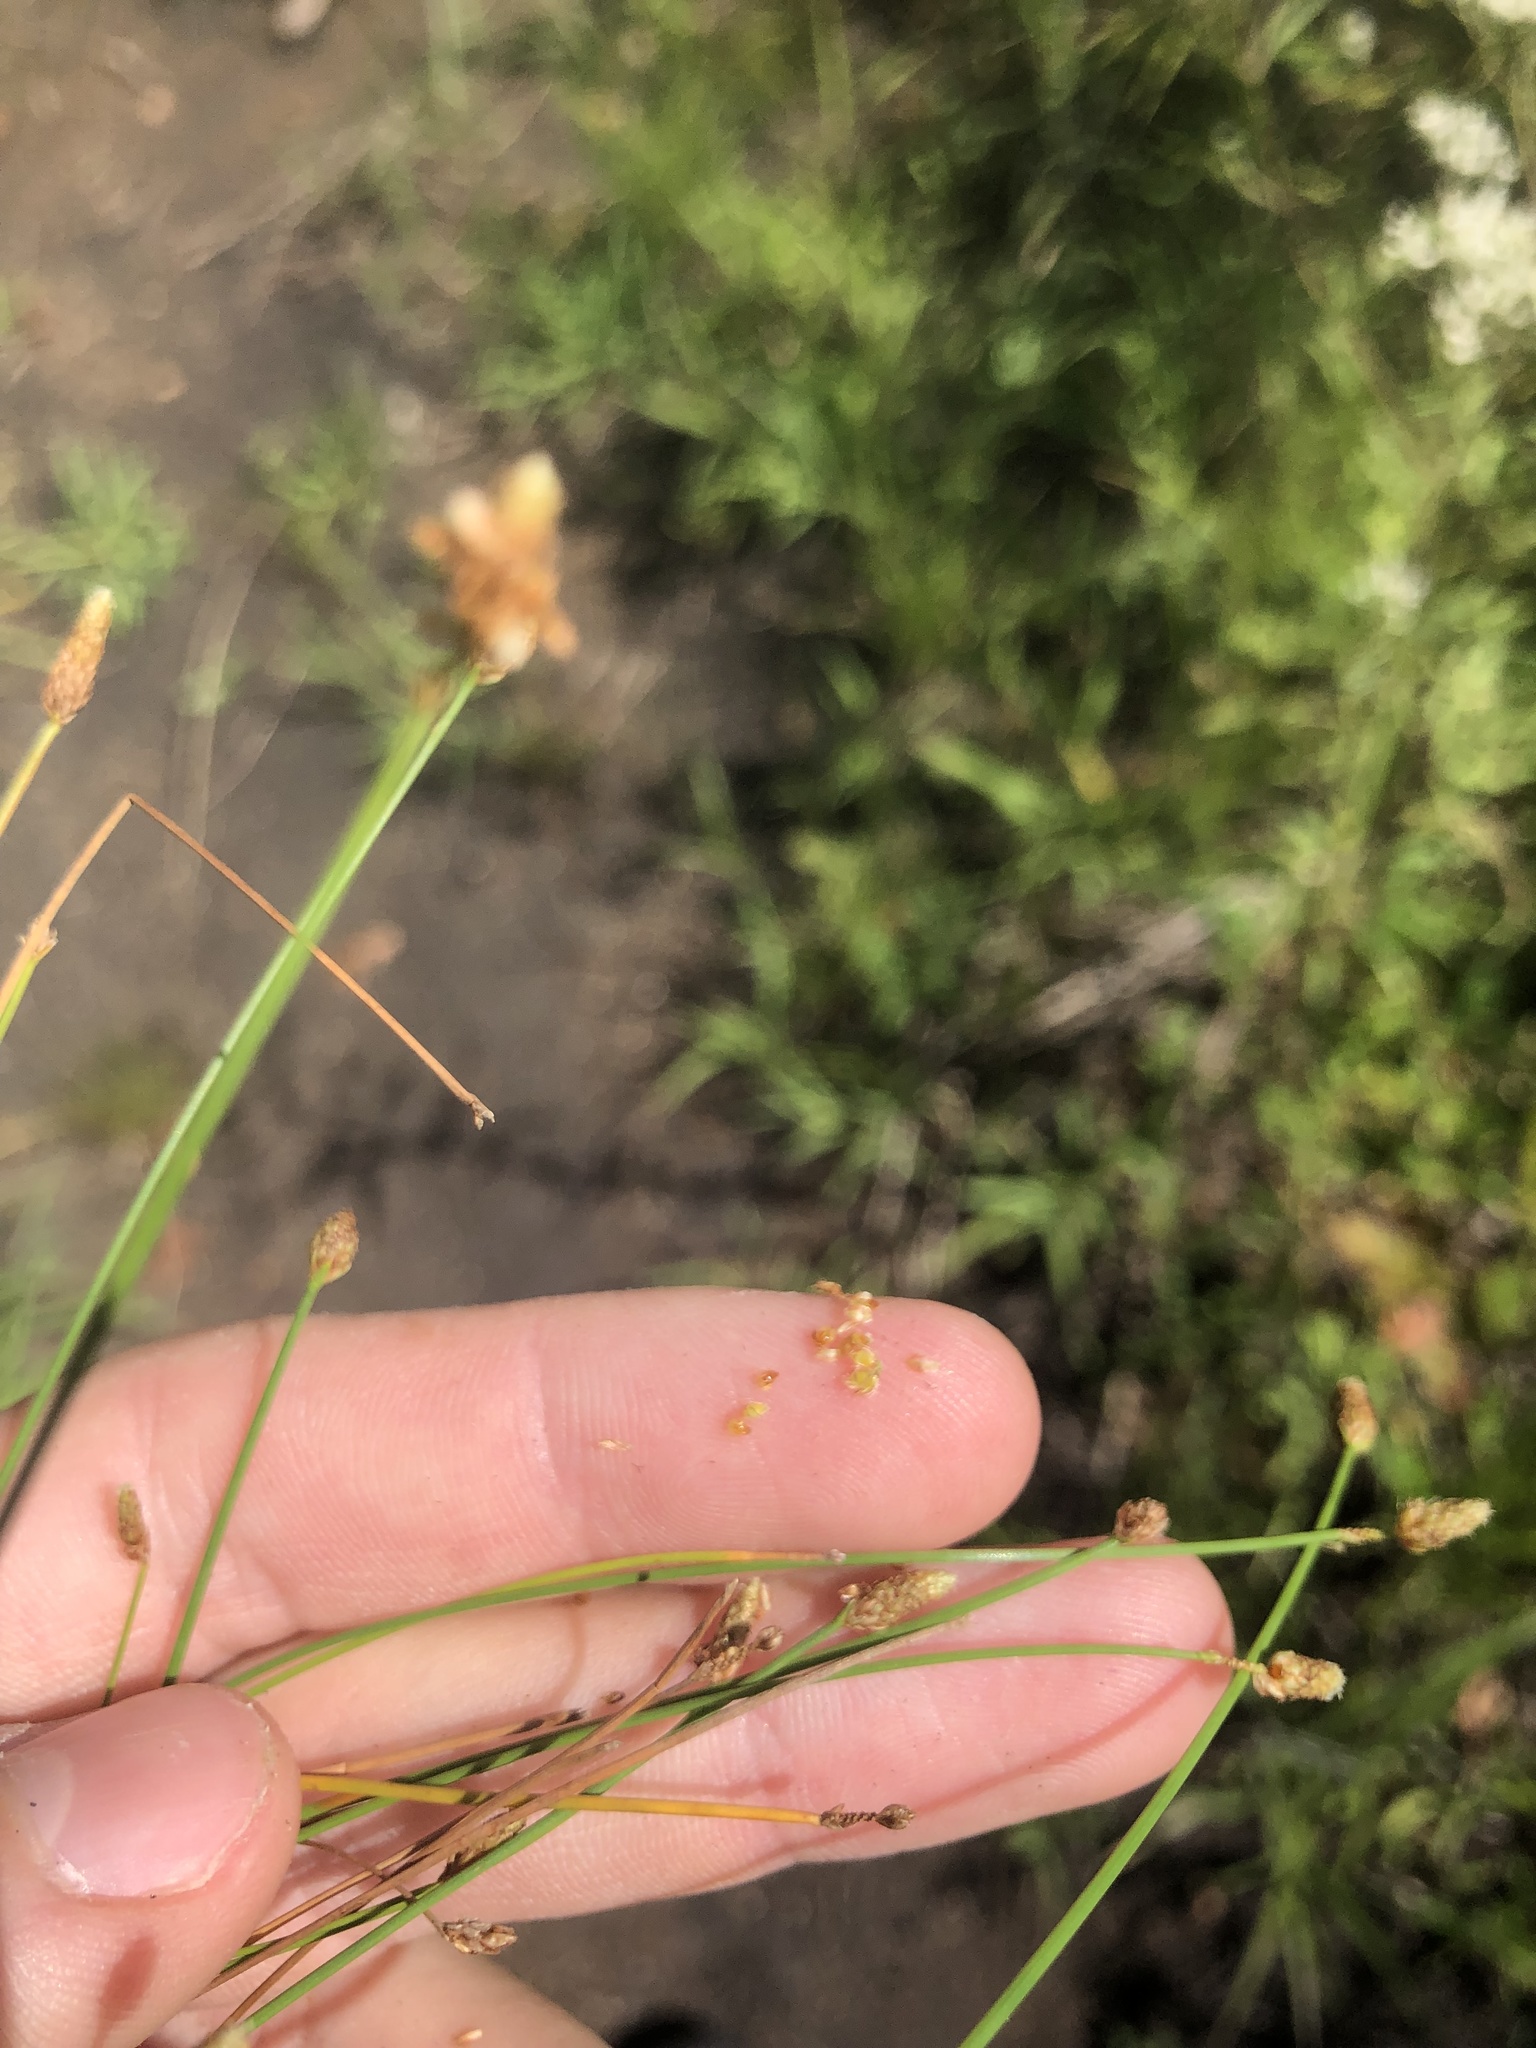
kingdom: Plantae
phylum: Tracheophyta
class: Liliopsida
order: Poales
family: Cyperaceae
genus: Eleocharis
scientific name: Eleocharis obtusa
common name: Blunt spikerush
